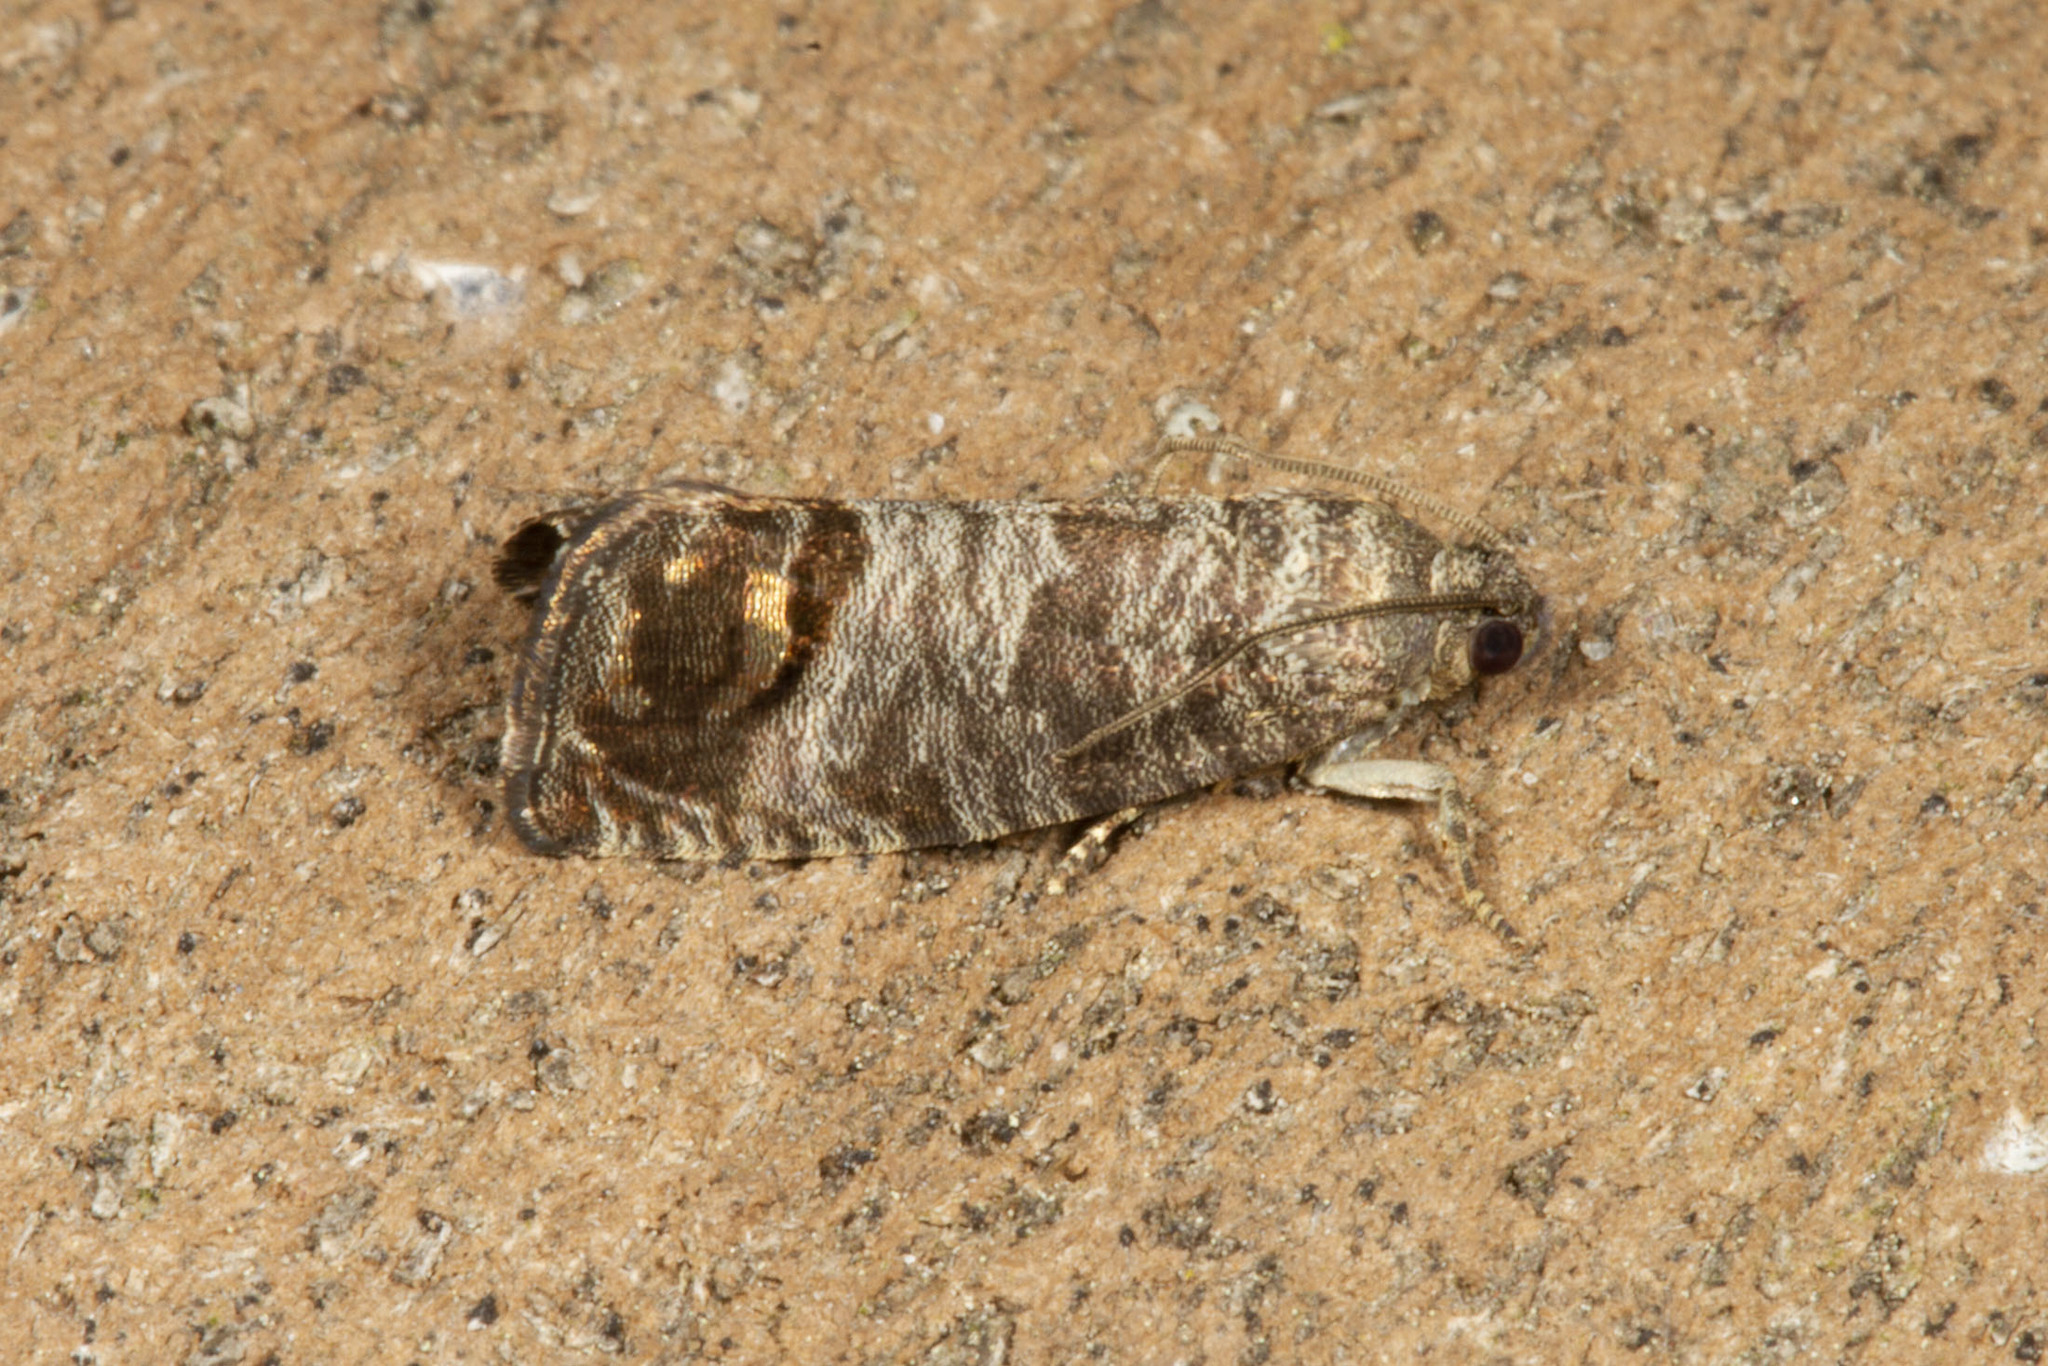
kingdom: Animalia
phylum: Arthropoda
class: Insecta
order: Lepidoptera
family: Tortricidae
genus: Cydia
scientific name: Cydia pomonella
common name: Codling moth
